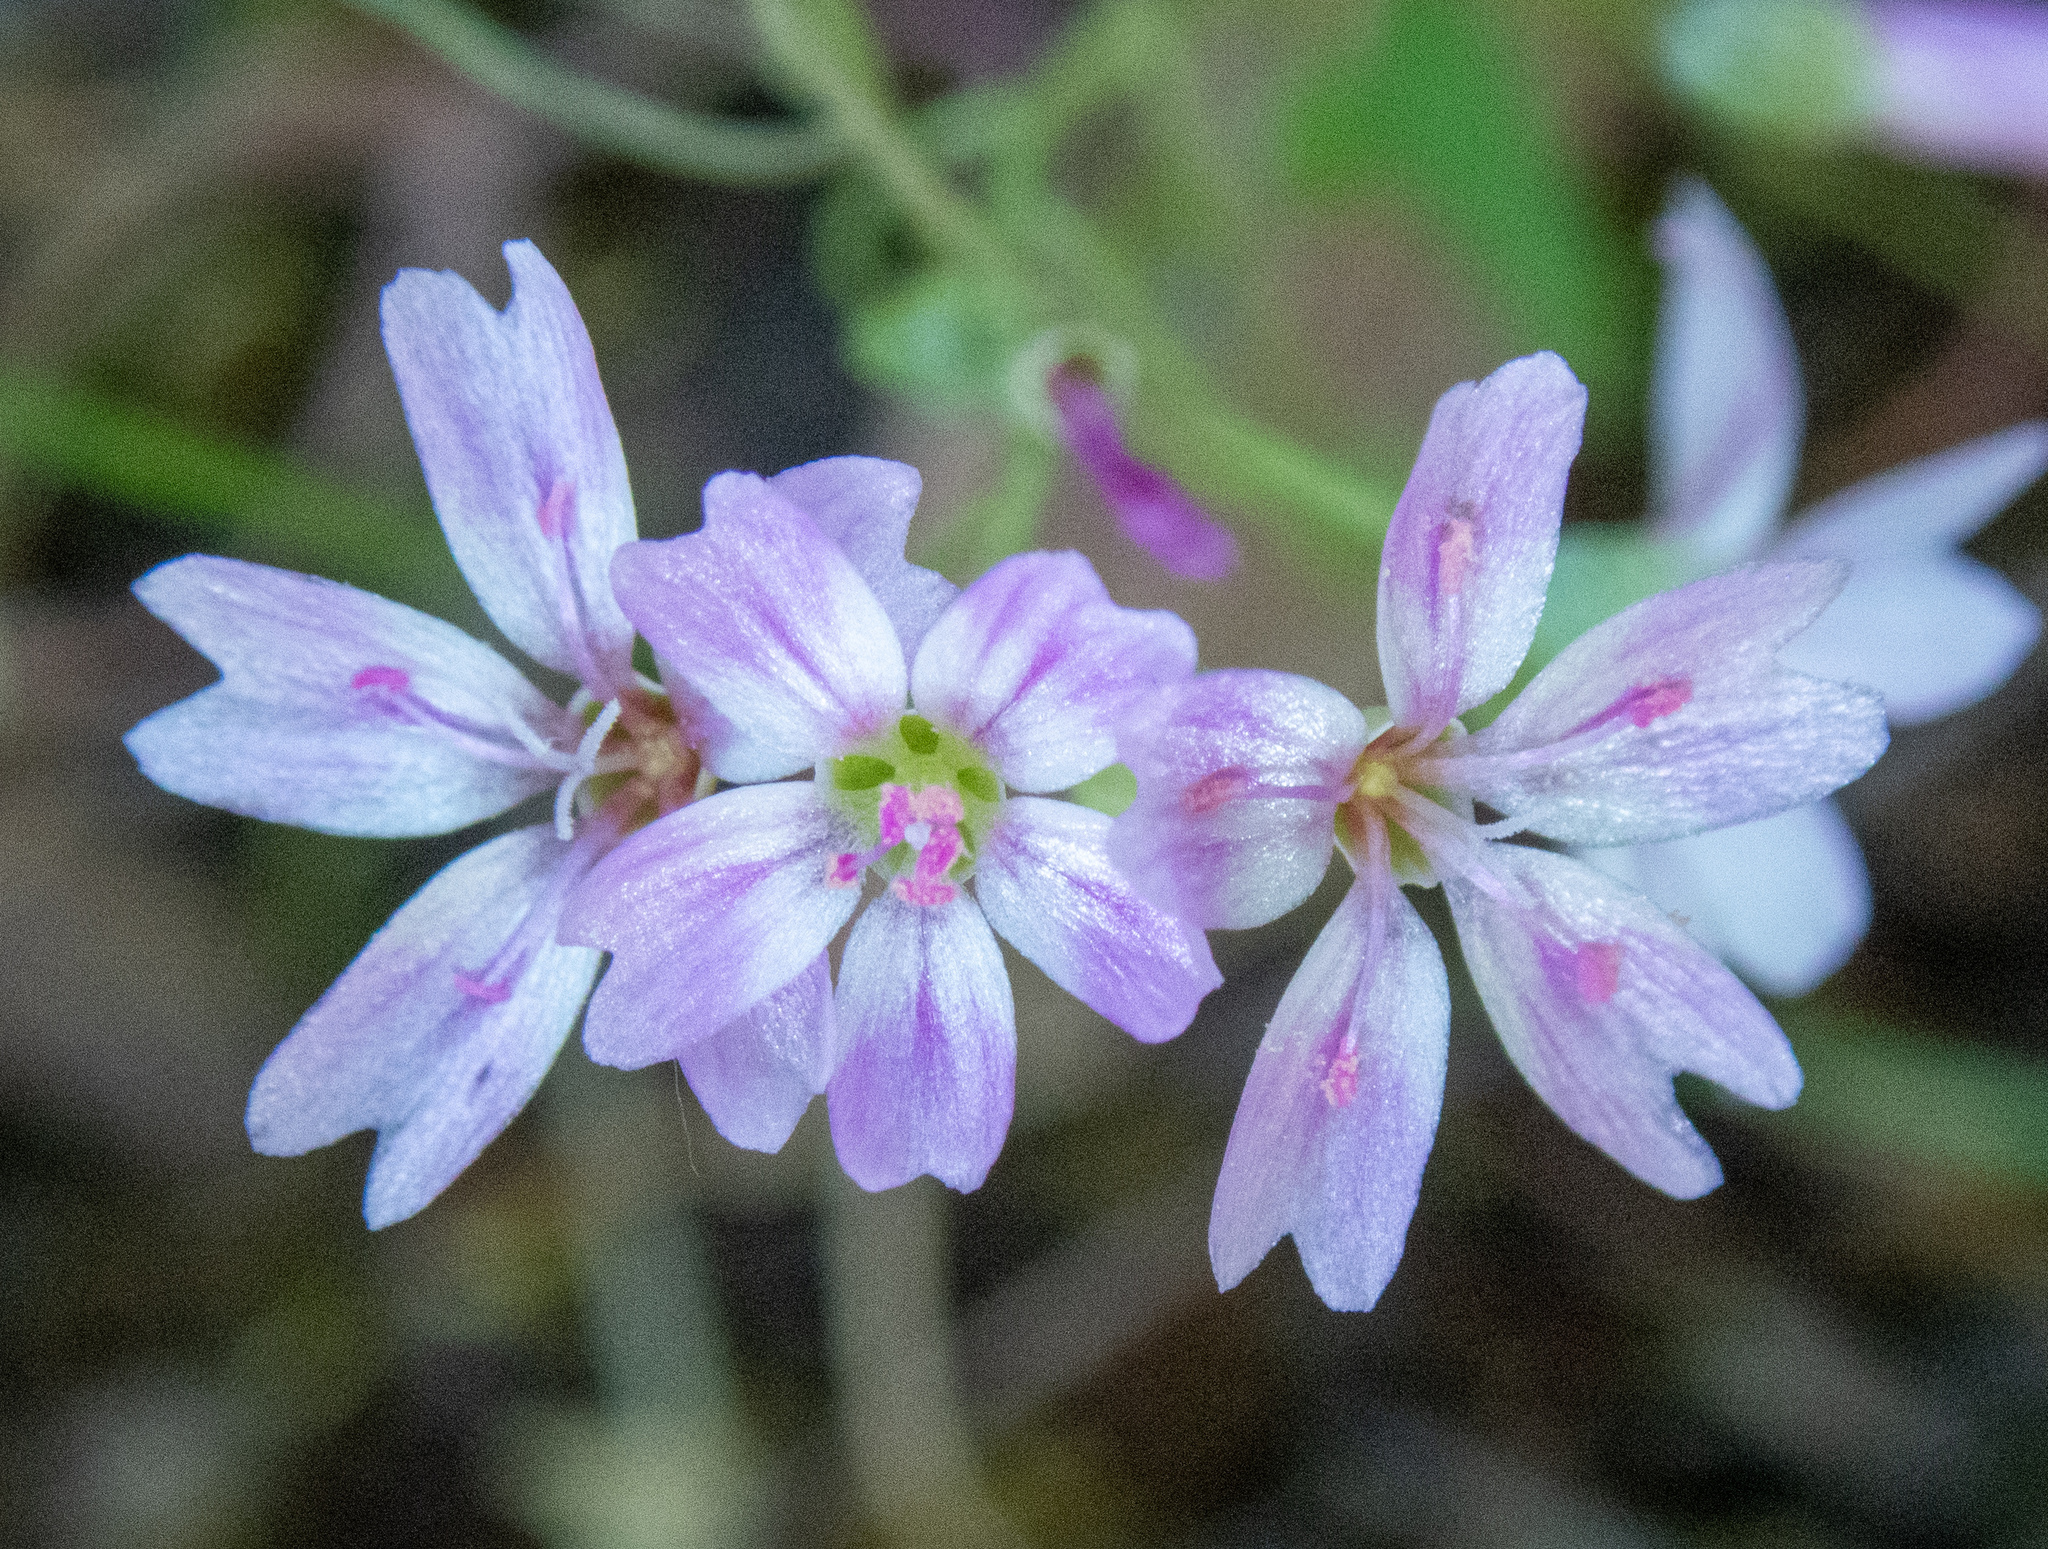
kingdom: Plantae
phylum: Tracheophyta
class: Magnoliopsida
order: Caryophyllales
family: Montiaceae
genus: Claytonia
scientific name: Claytonia gypsophiloides
